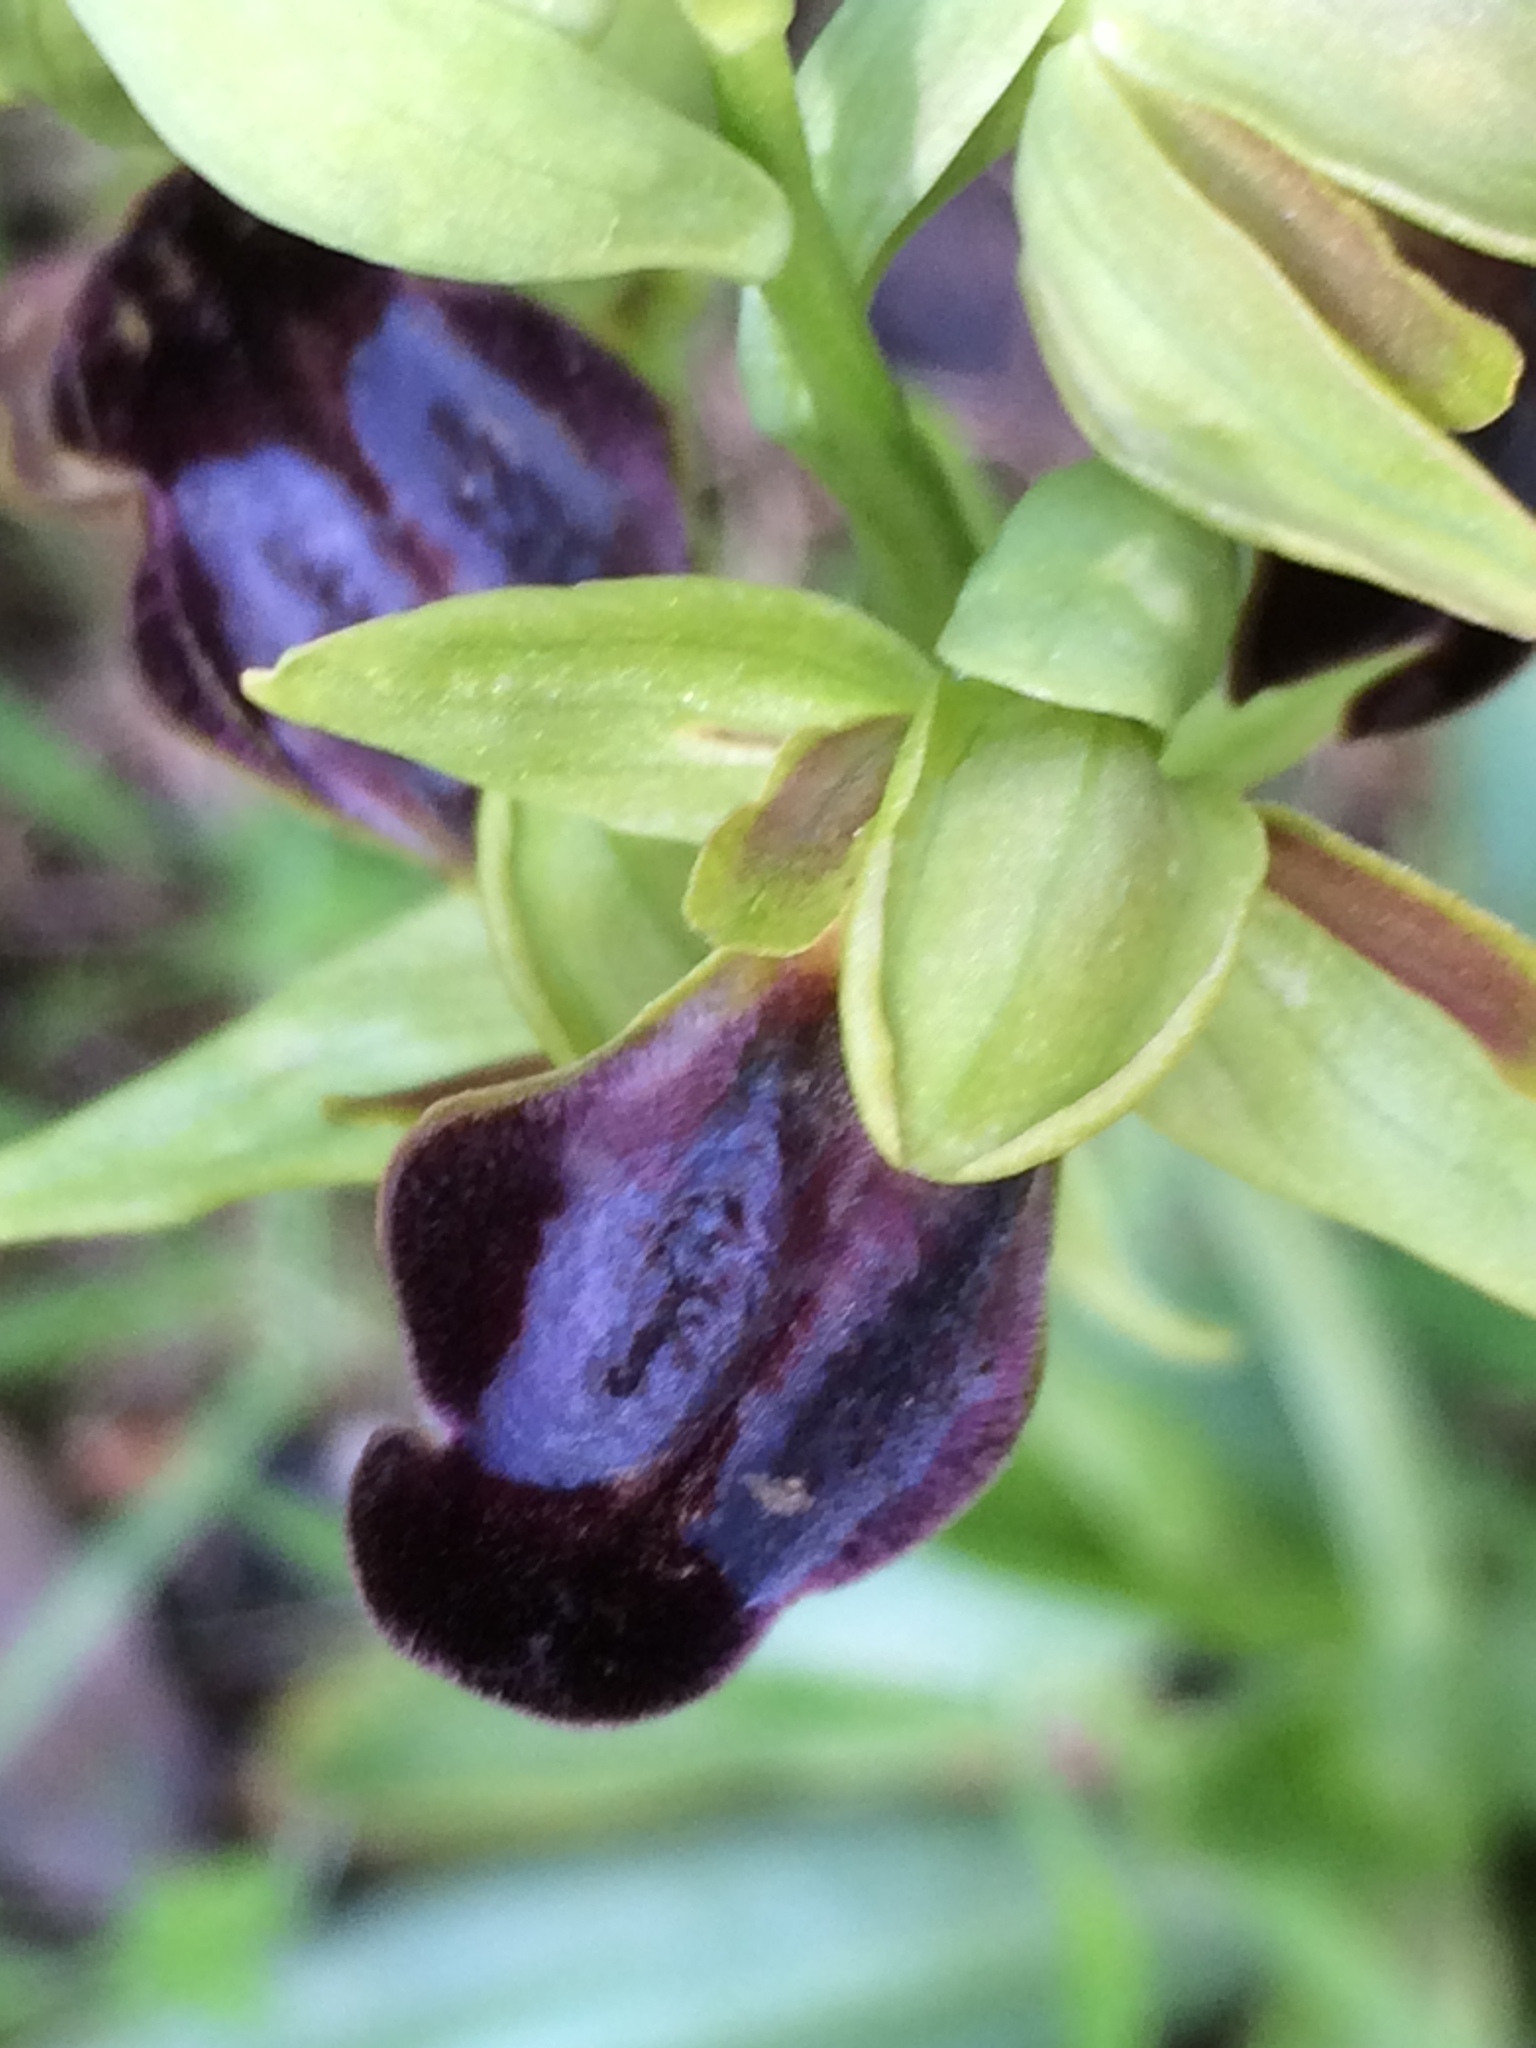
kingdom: Plantae
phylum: Tracheophyta
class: Liliopsida
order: Asparagales
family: Orchidaceae
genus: Ophrys
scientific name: Ophrys fusca
